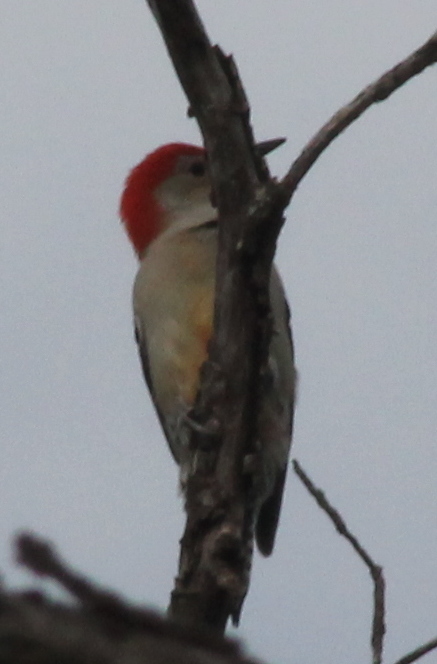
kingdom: Animalia
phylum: Chordata
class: Aves
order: Piciformes
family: Picidae
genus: Melanerpes
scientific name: Melanerpes carolinus
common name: Red-bellied woodpecker
